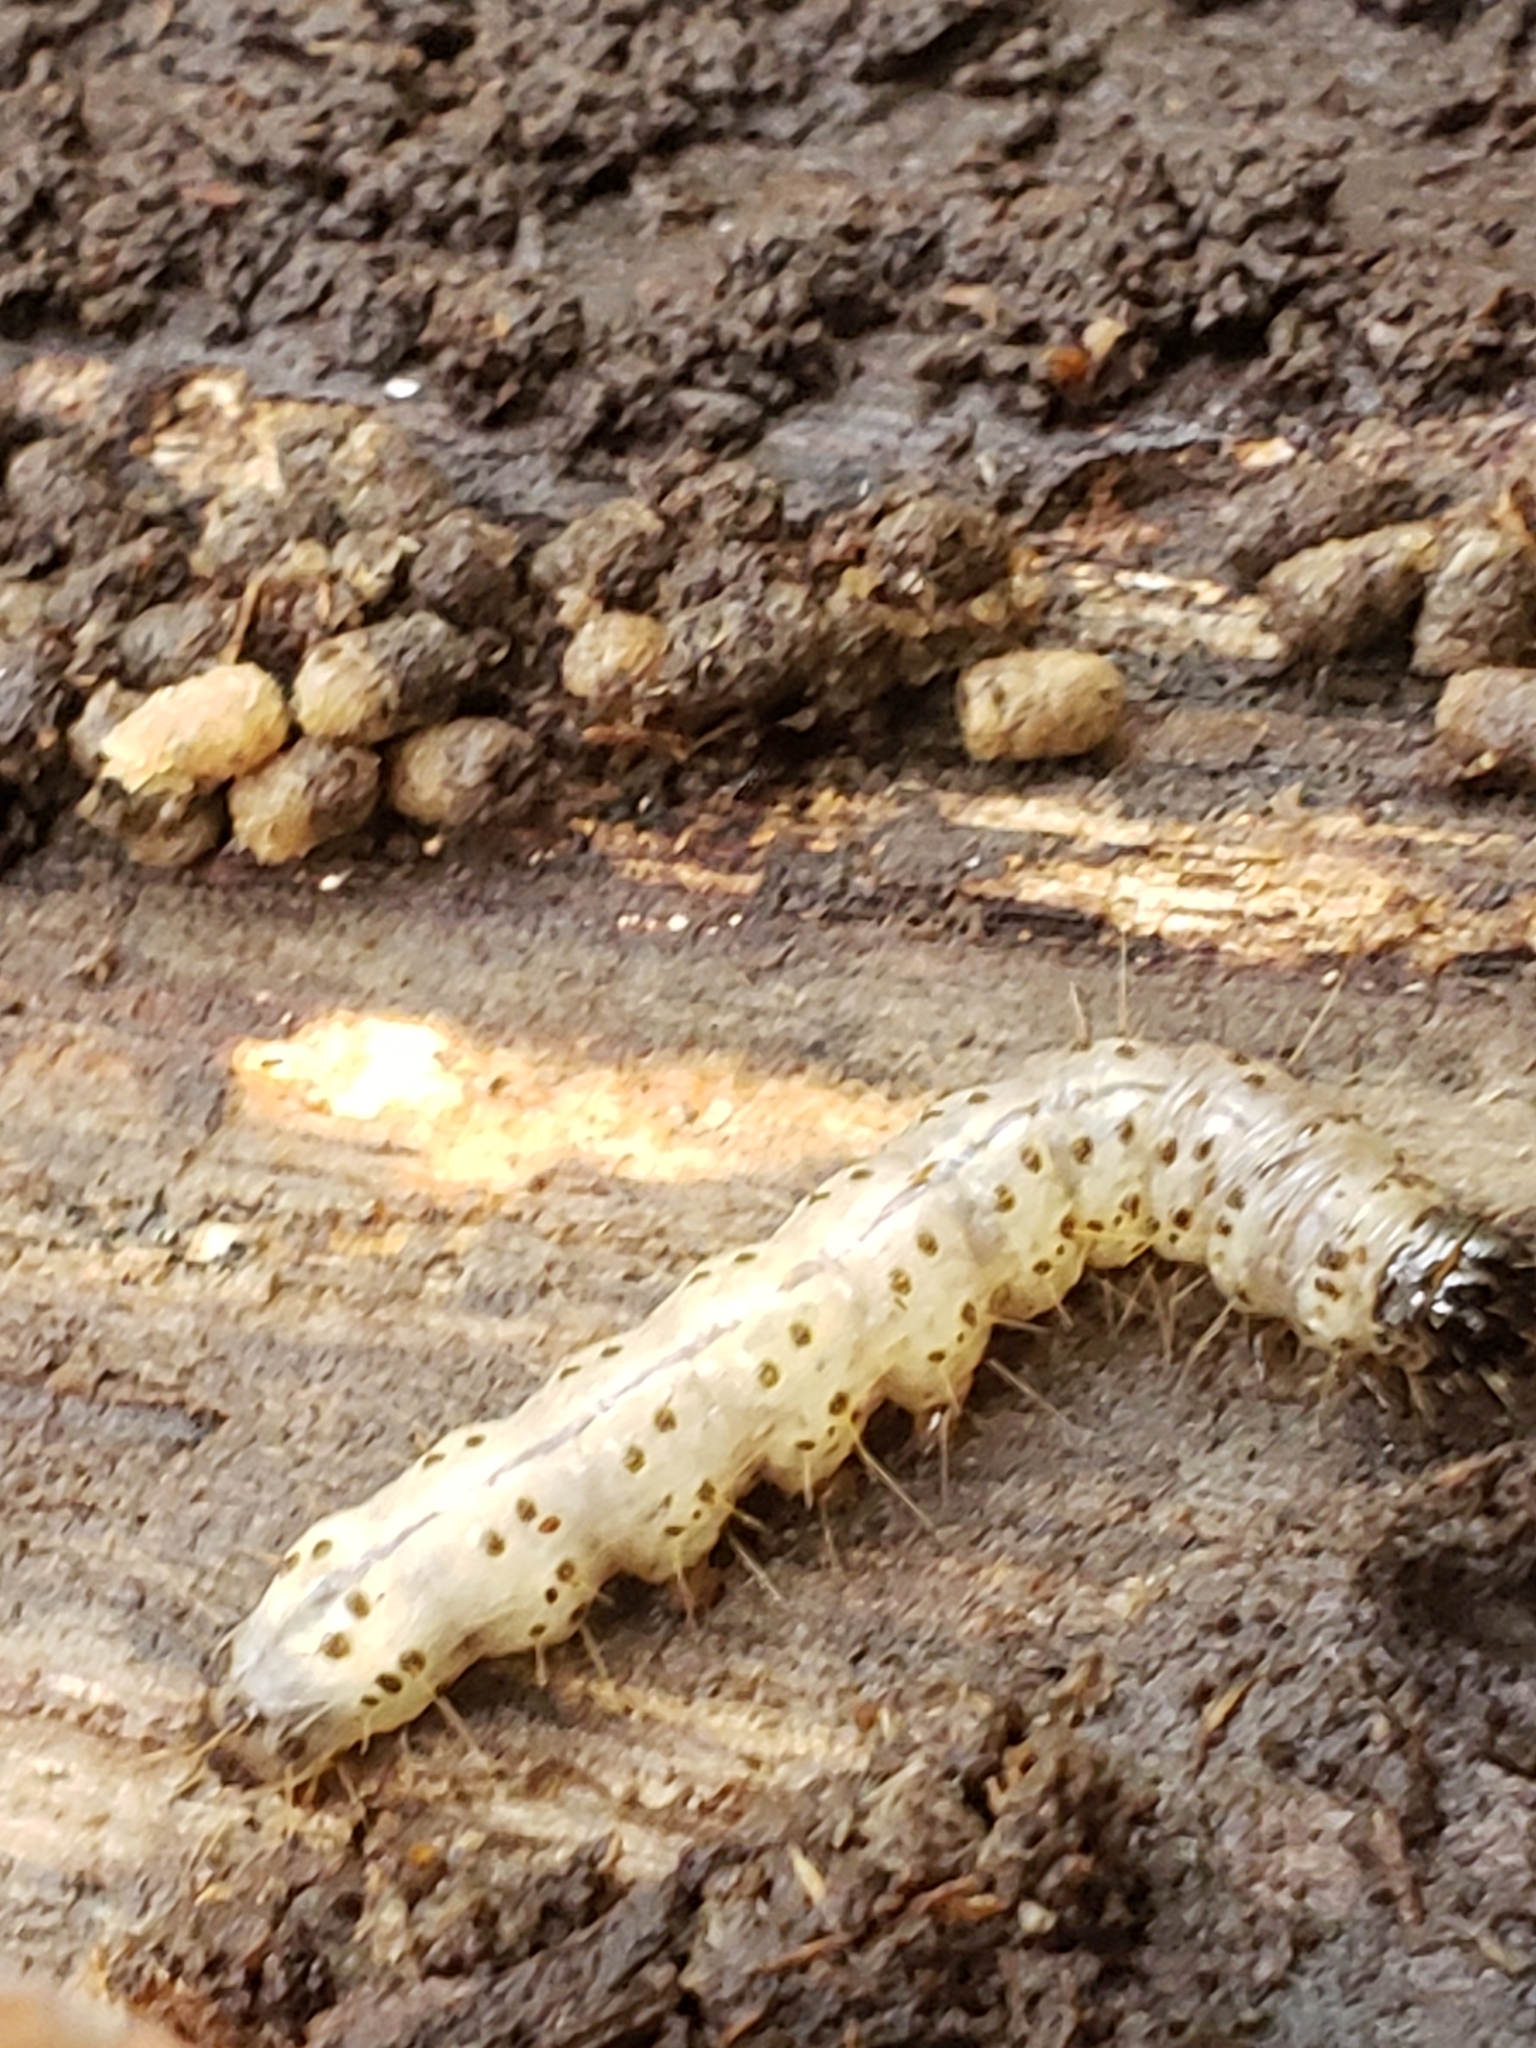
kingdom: Animalia
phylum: Arthropoda
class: Insecta
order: Lepidoptera
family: Erebidae
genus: Scolecocampa
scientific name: Scolecocampa liburna
